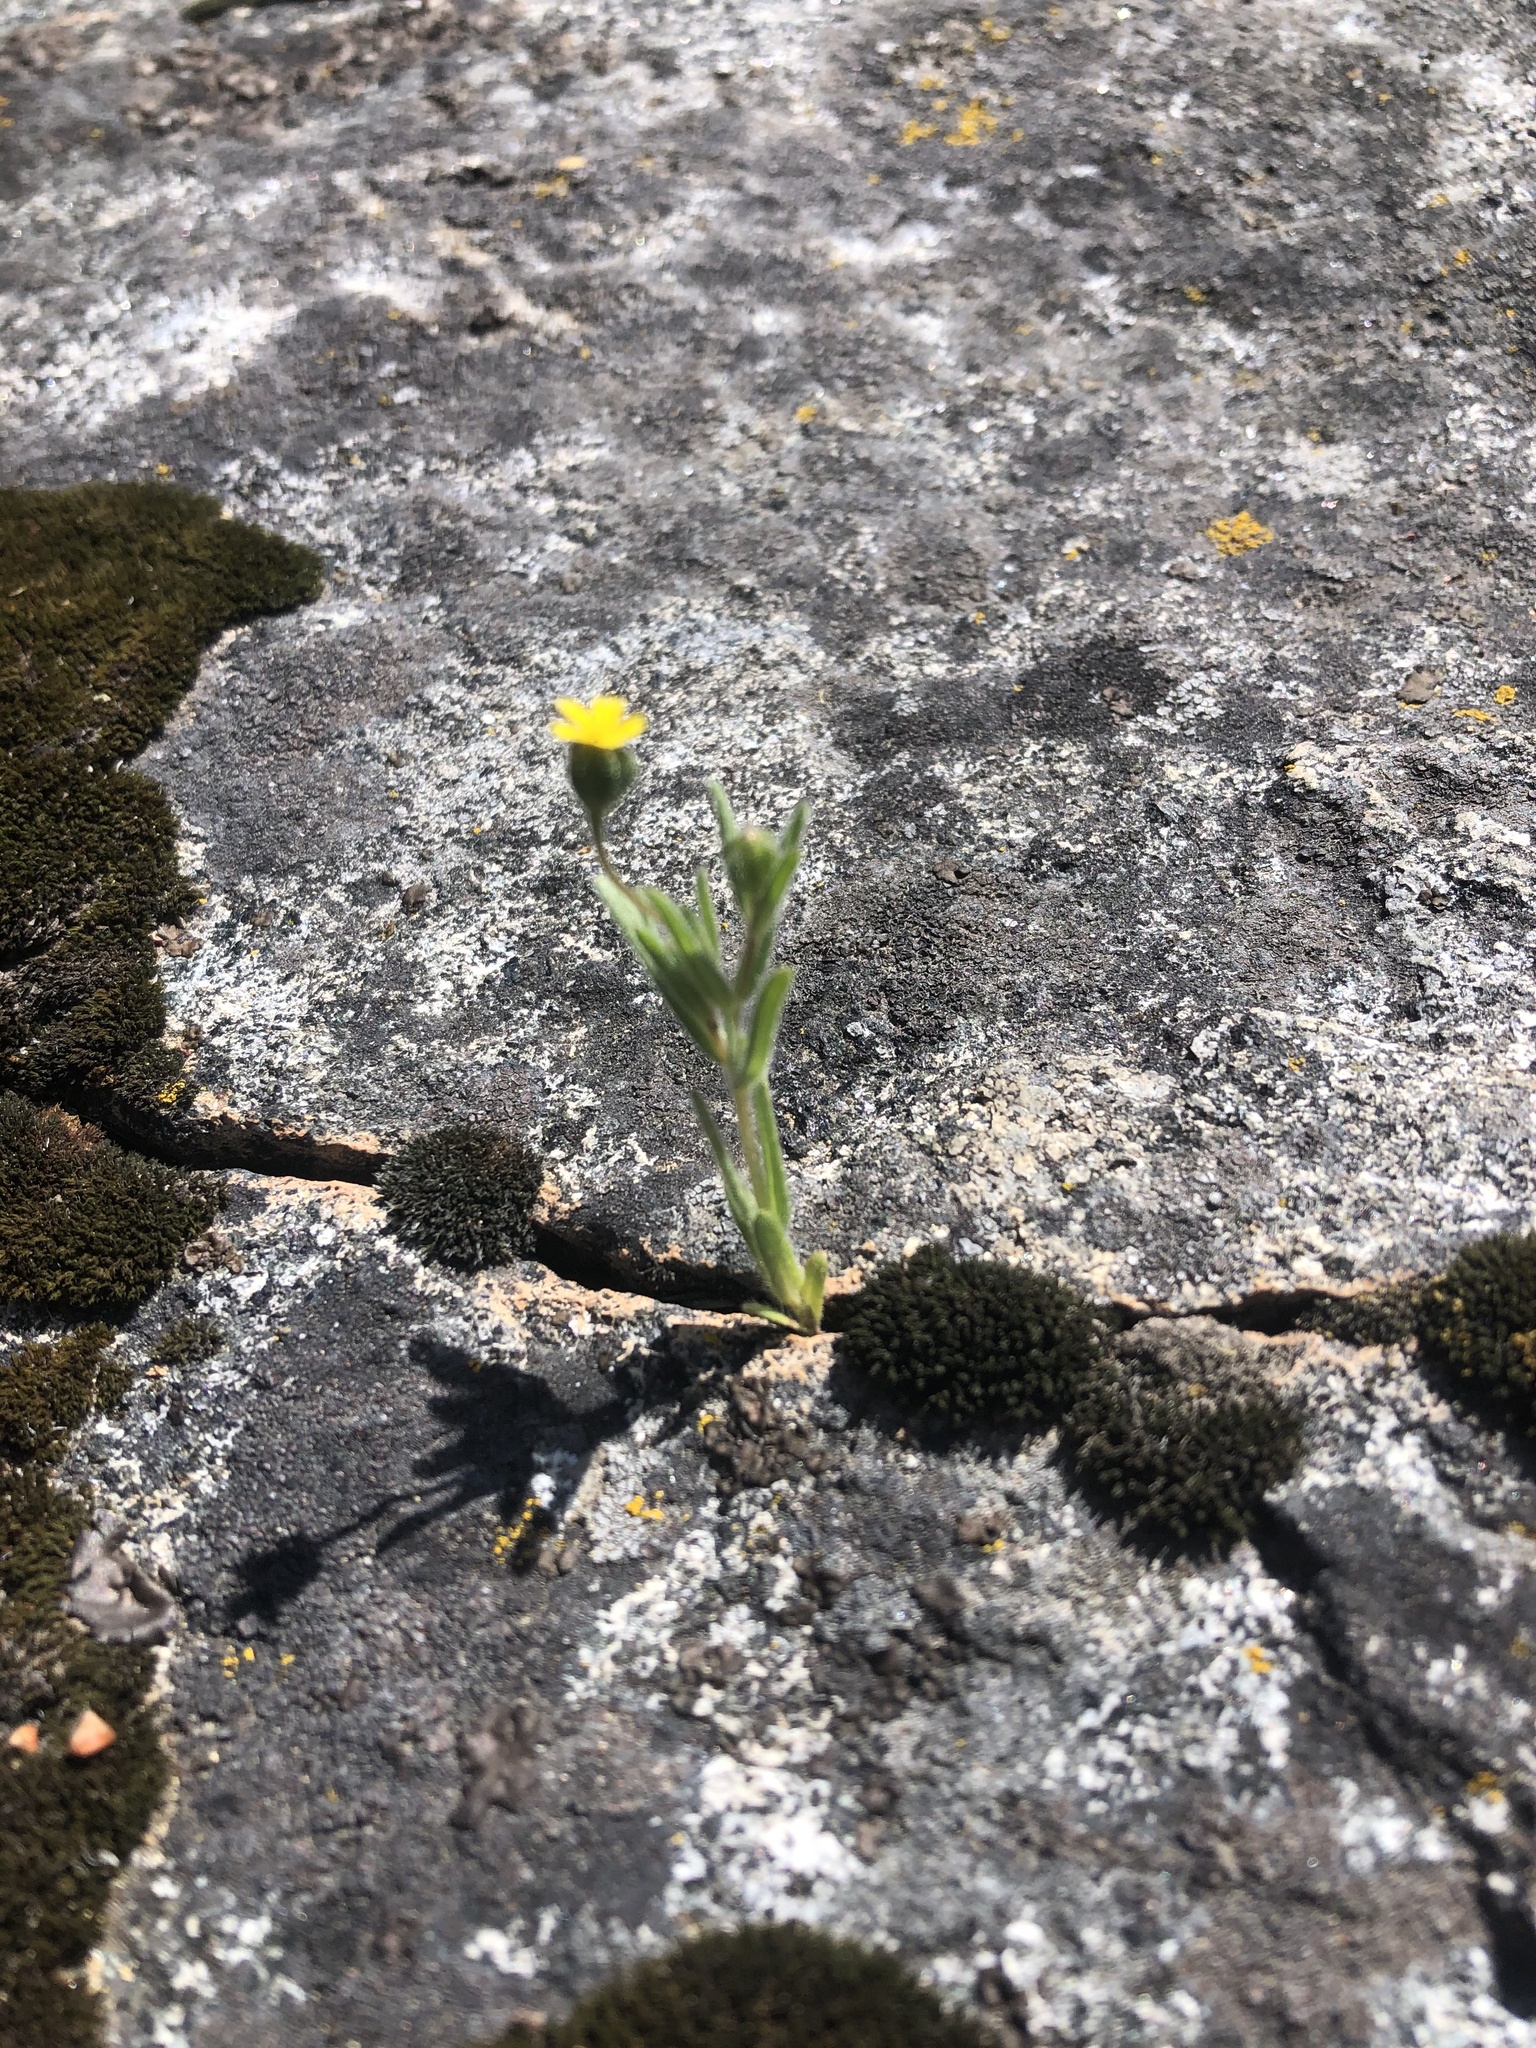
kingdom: Plantae
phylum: Tracheophyta
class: Magnoliopsida
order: Asterales
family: Asteraceae
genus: Madia
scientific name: Madia gracilis
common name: Grassy tarweed
